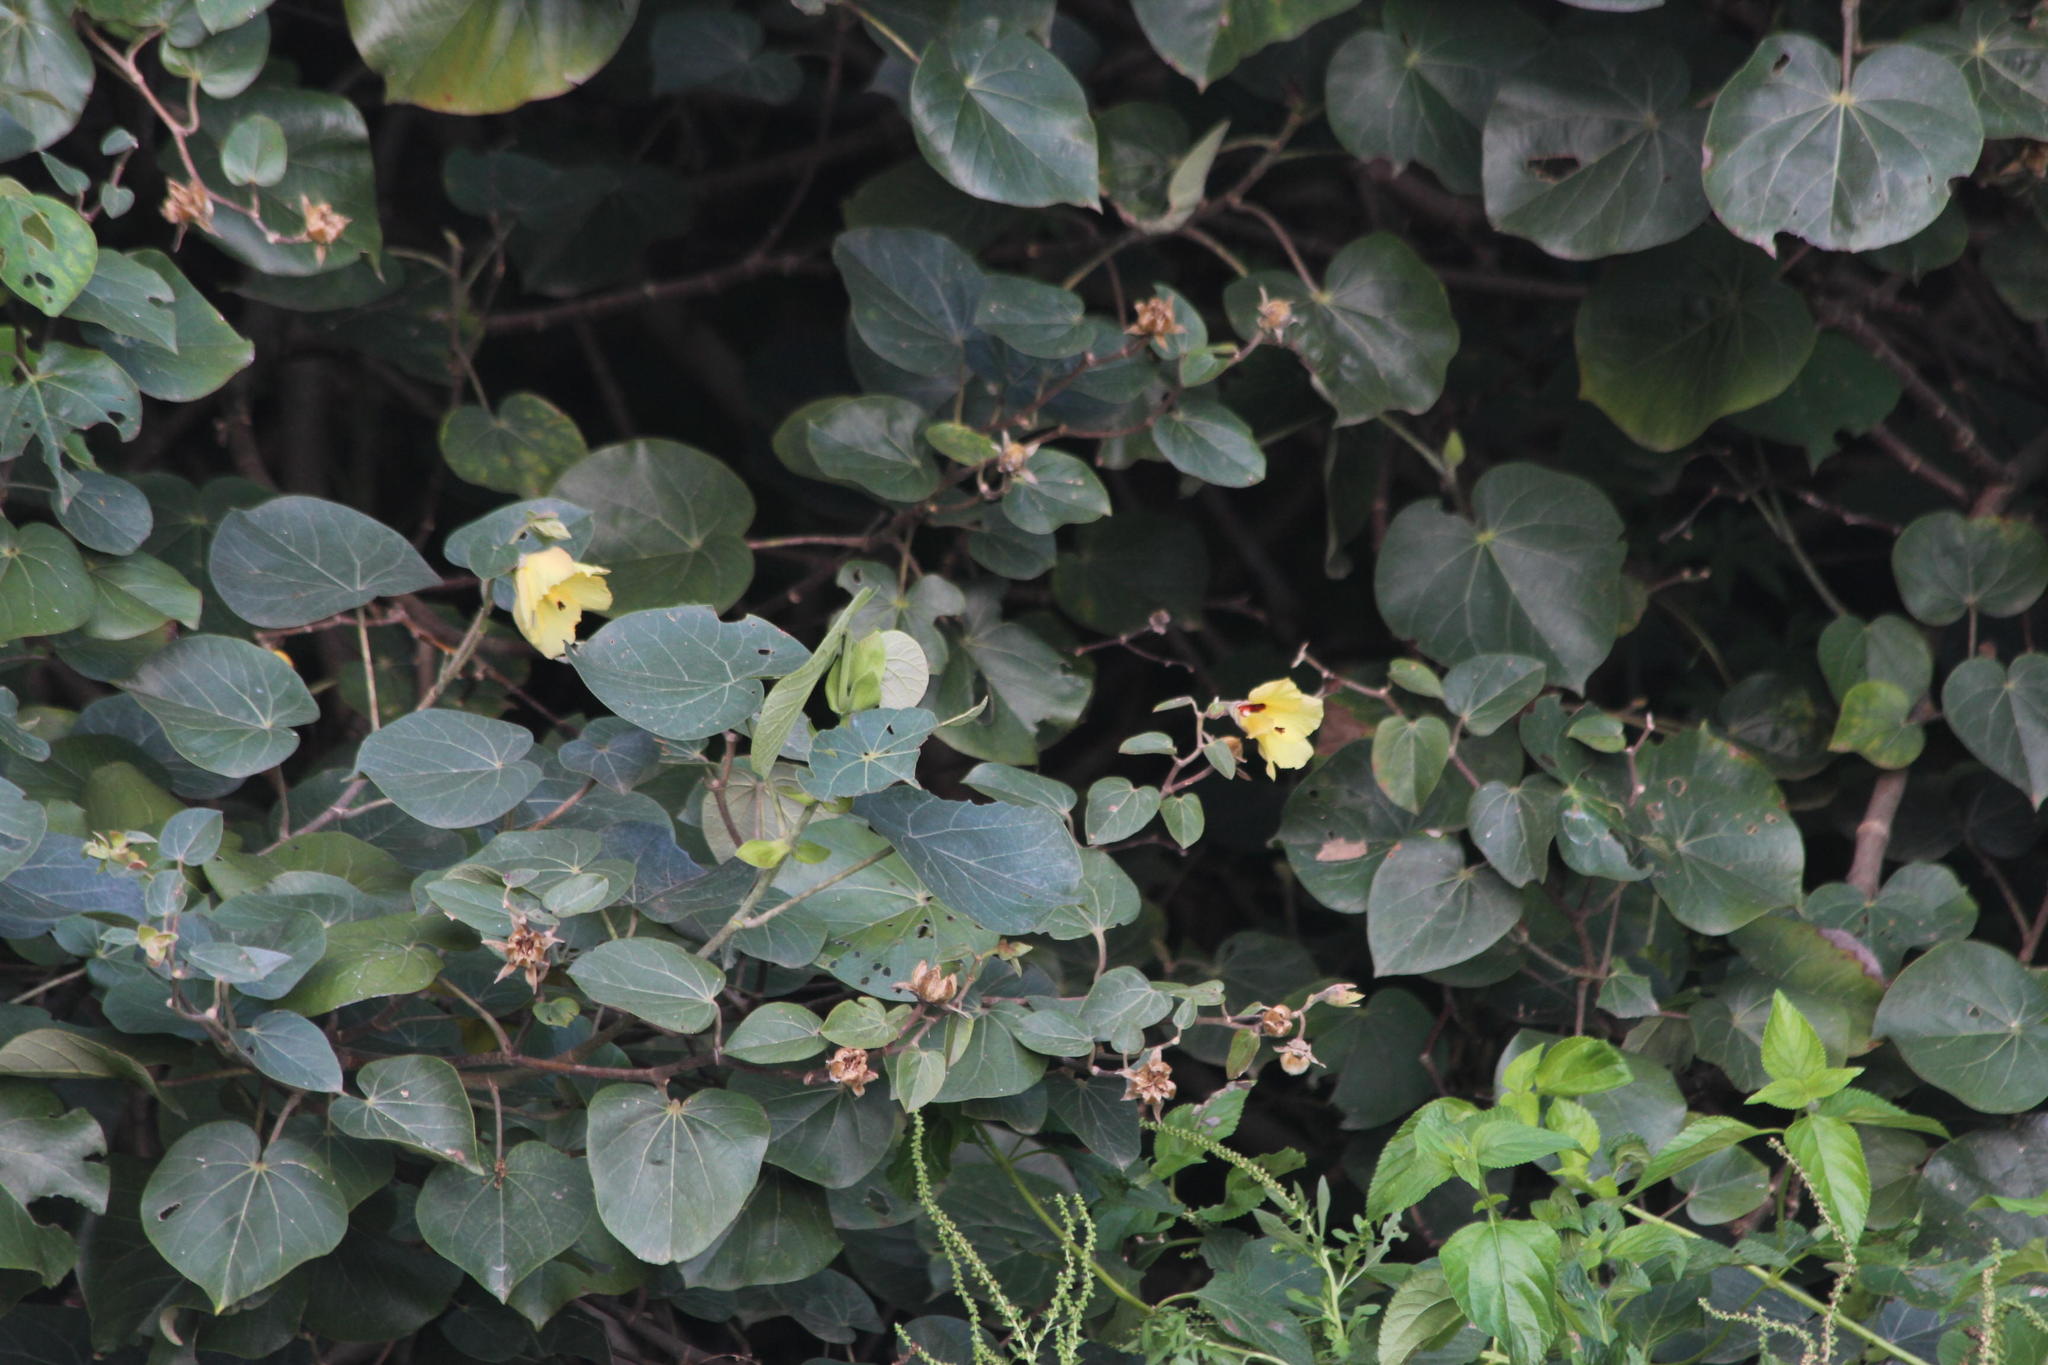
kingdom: Plantae
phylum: Tracheophyta
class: Magnoliopsida
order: Malvales
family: Malvaceae
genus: Talipariti
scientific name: Talipariti tiliaceum
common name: Sea hibiscus
